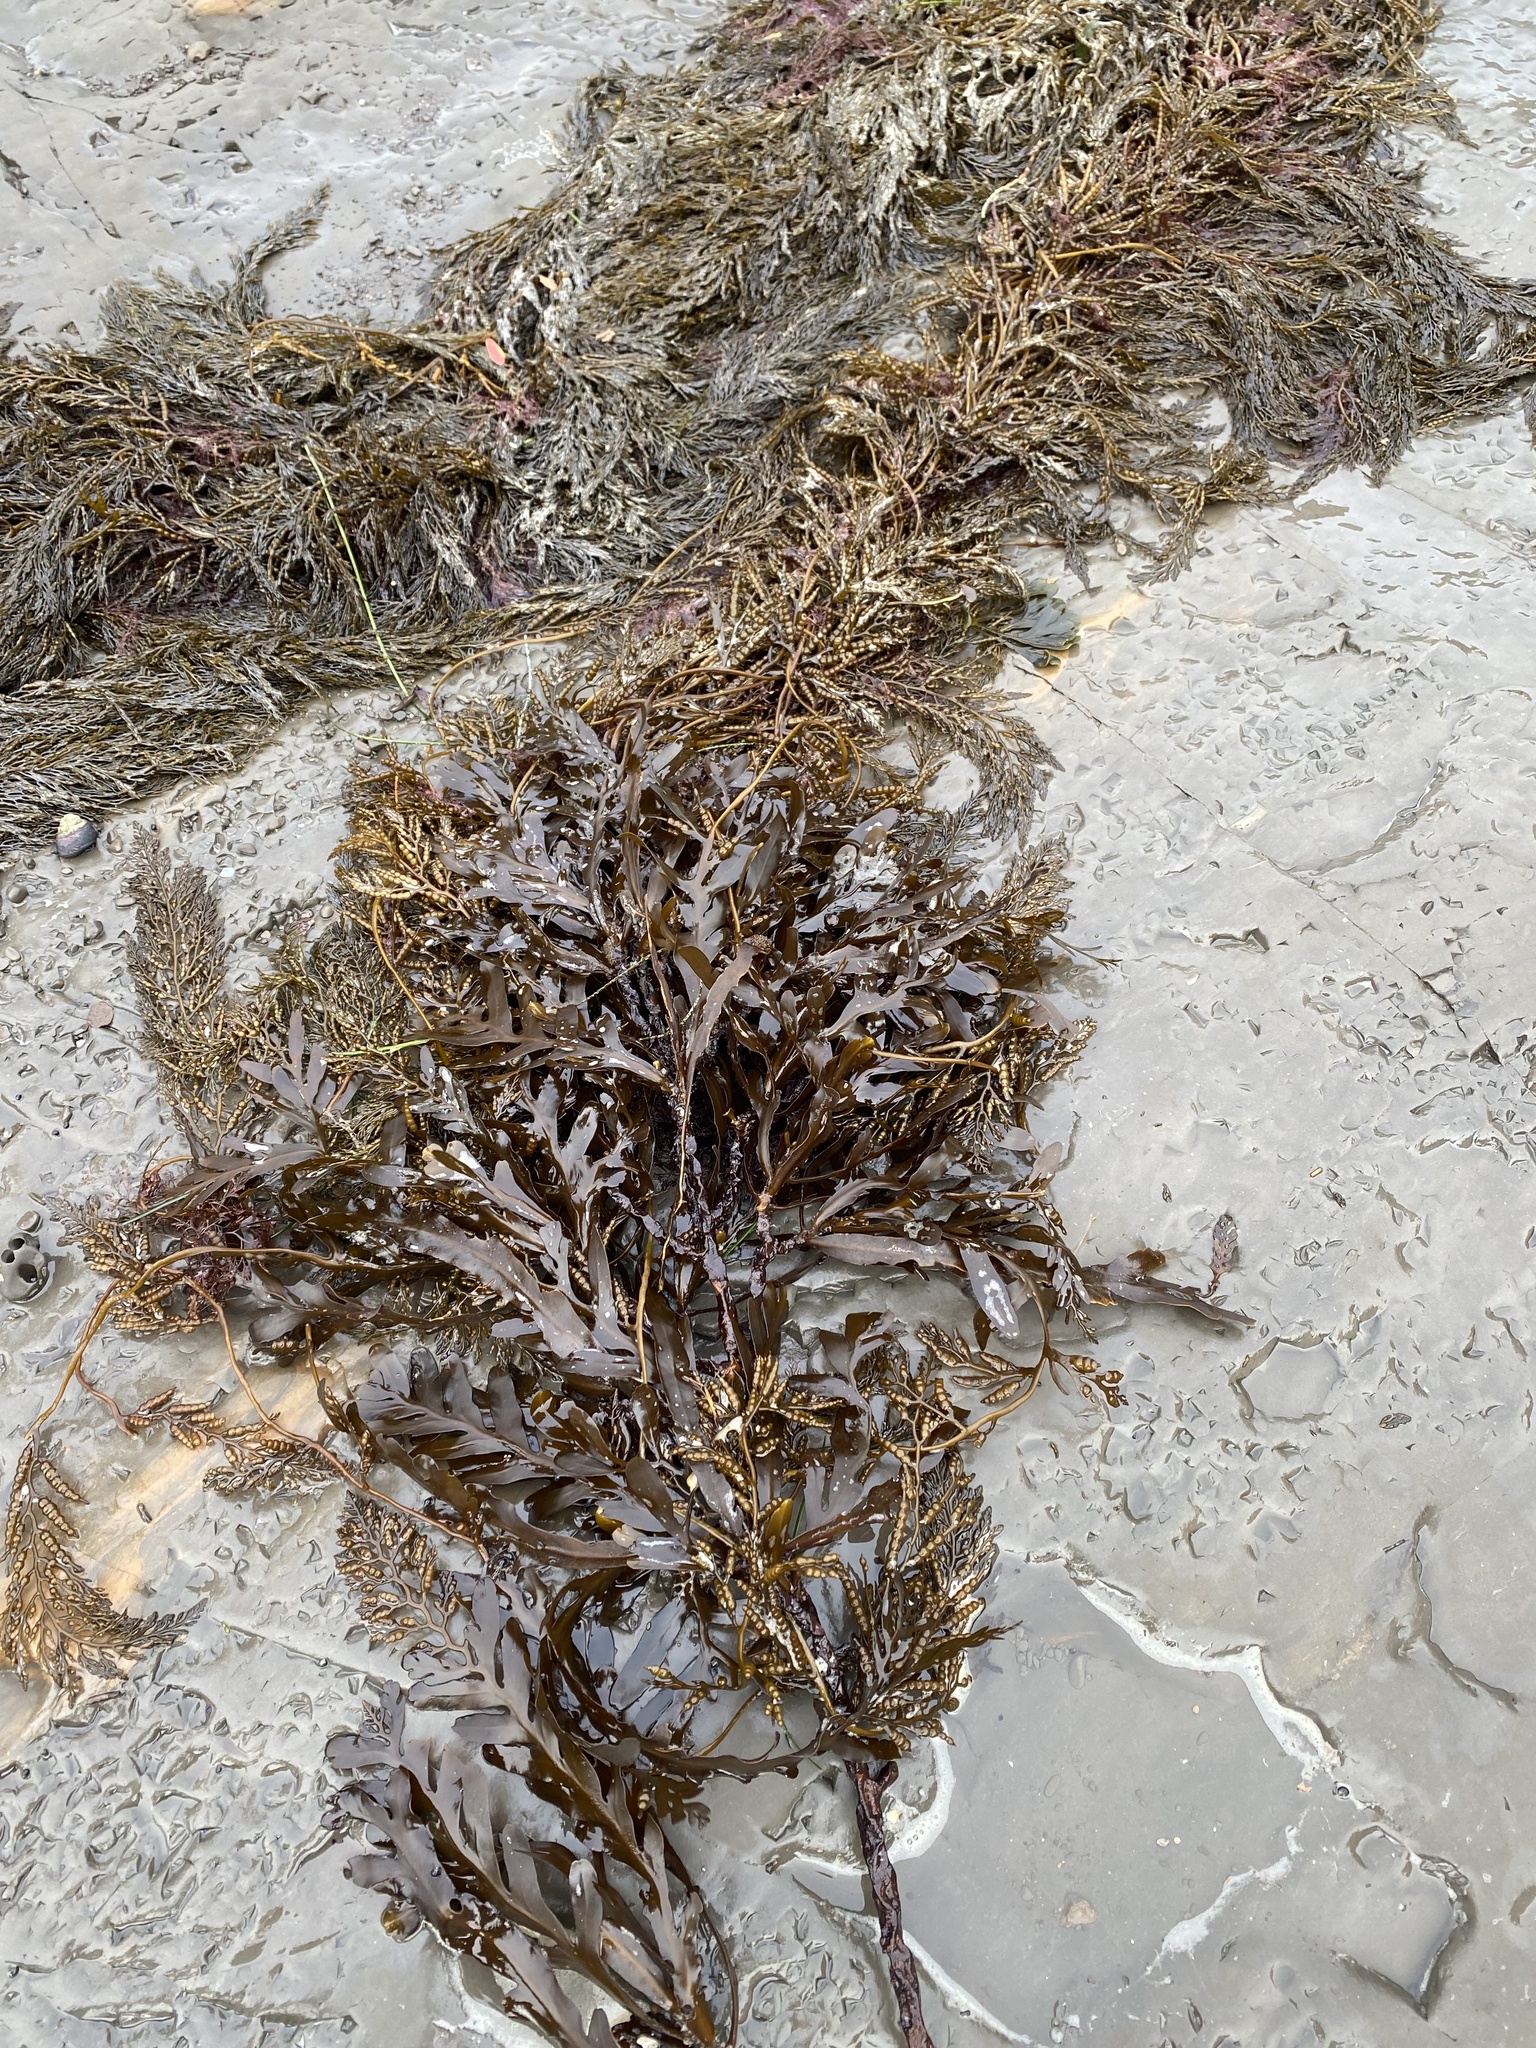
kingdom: Chromista
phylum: Ochrophyta
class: Phaeophyceae
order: Fucales
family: Sargassaceae
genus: Stephanocystis
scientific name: Stephanocystis
